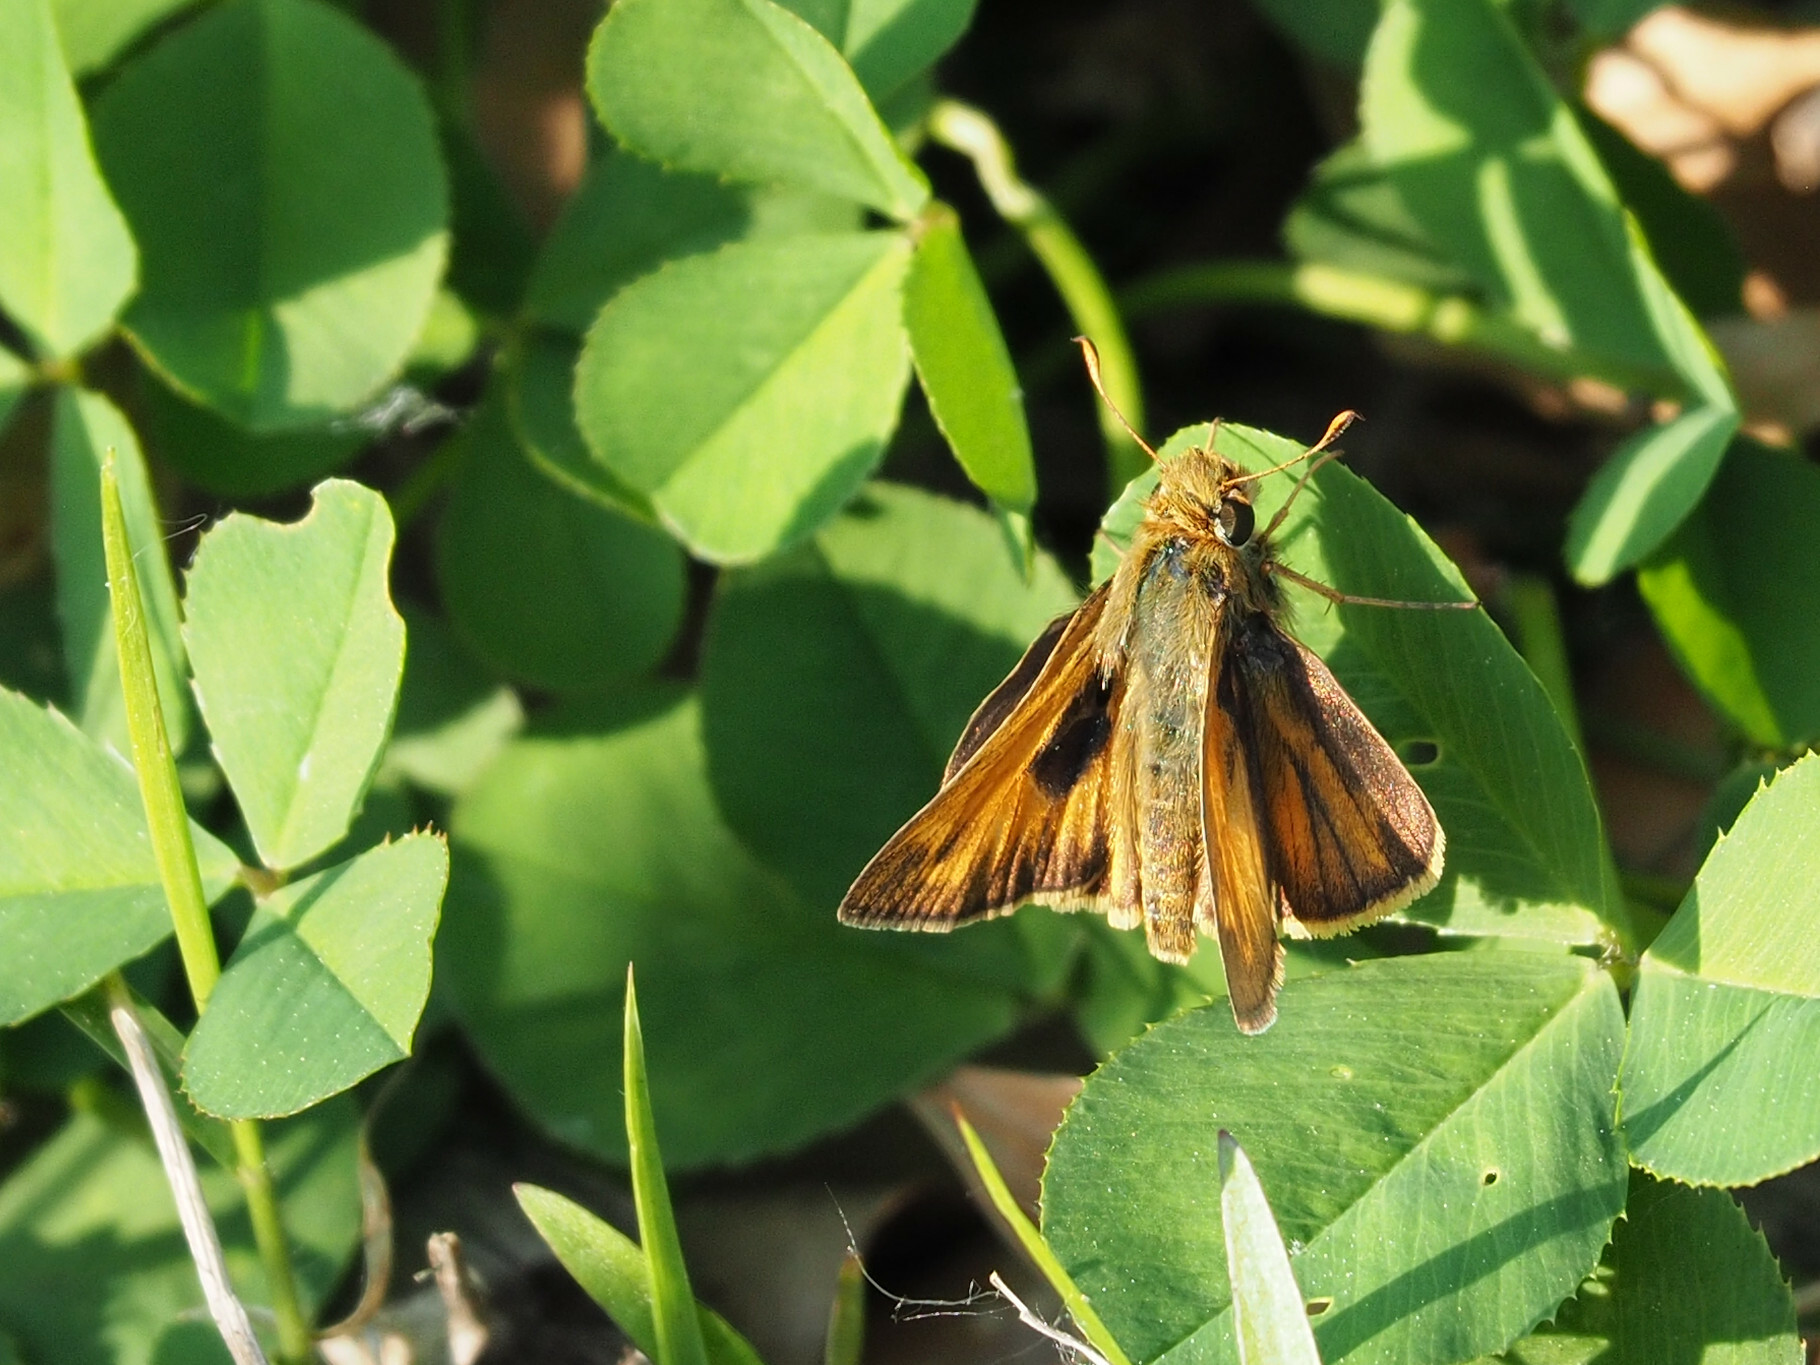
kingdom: Animalia
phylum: Arthropoda
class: Insecta
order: Lepidoptera
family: Hesperiidae
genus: Atalopedes
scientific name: Atalopedes
